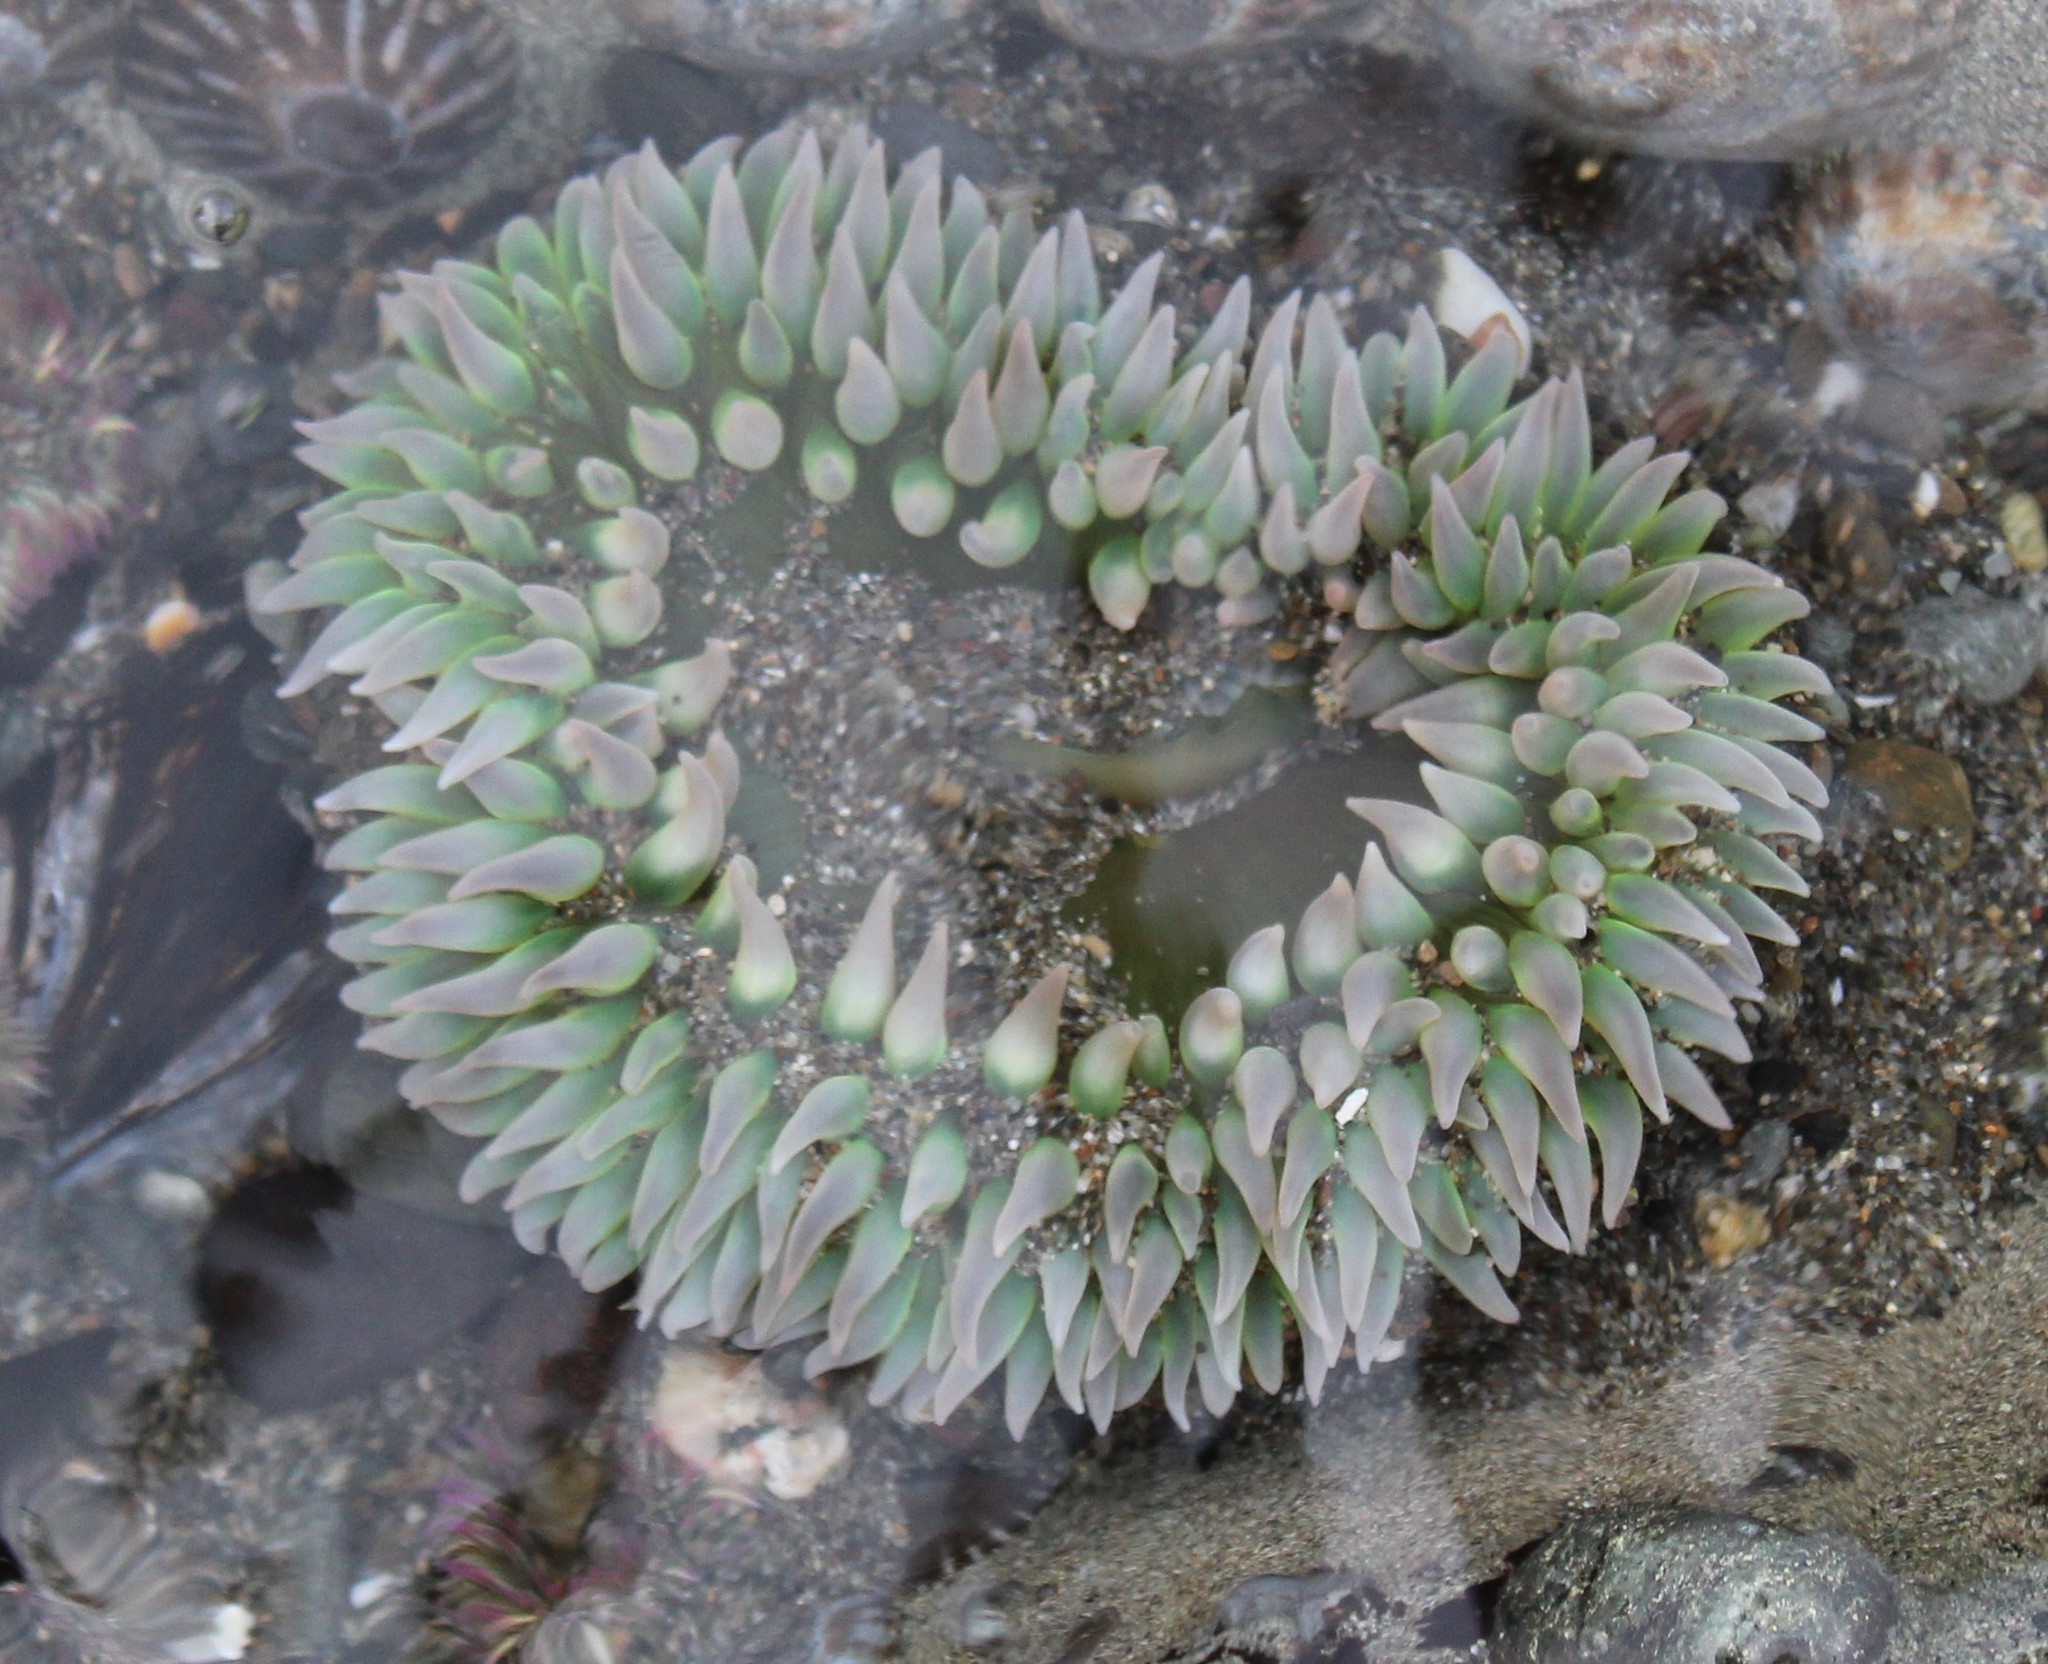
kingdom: Animalia
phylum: Cnidaria
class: Anthozoa
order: Actiniaria
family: Actiniidae
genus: Anthopleura
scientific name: Anthopleura xanthogrammica
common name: Giant green anemone
